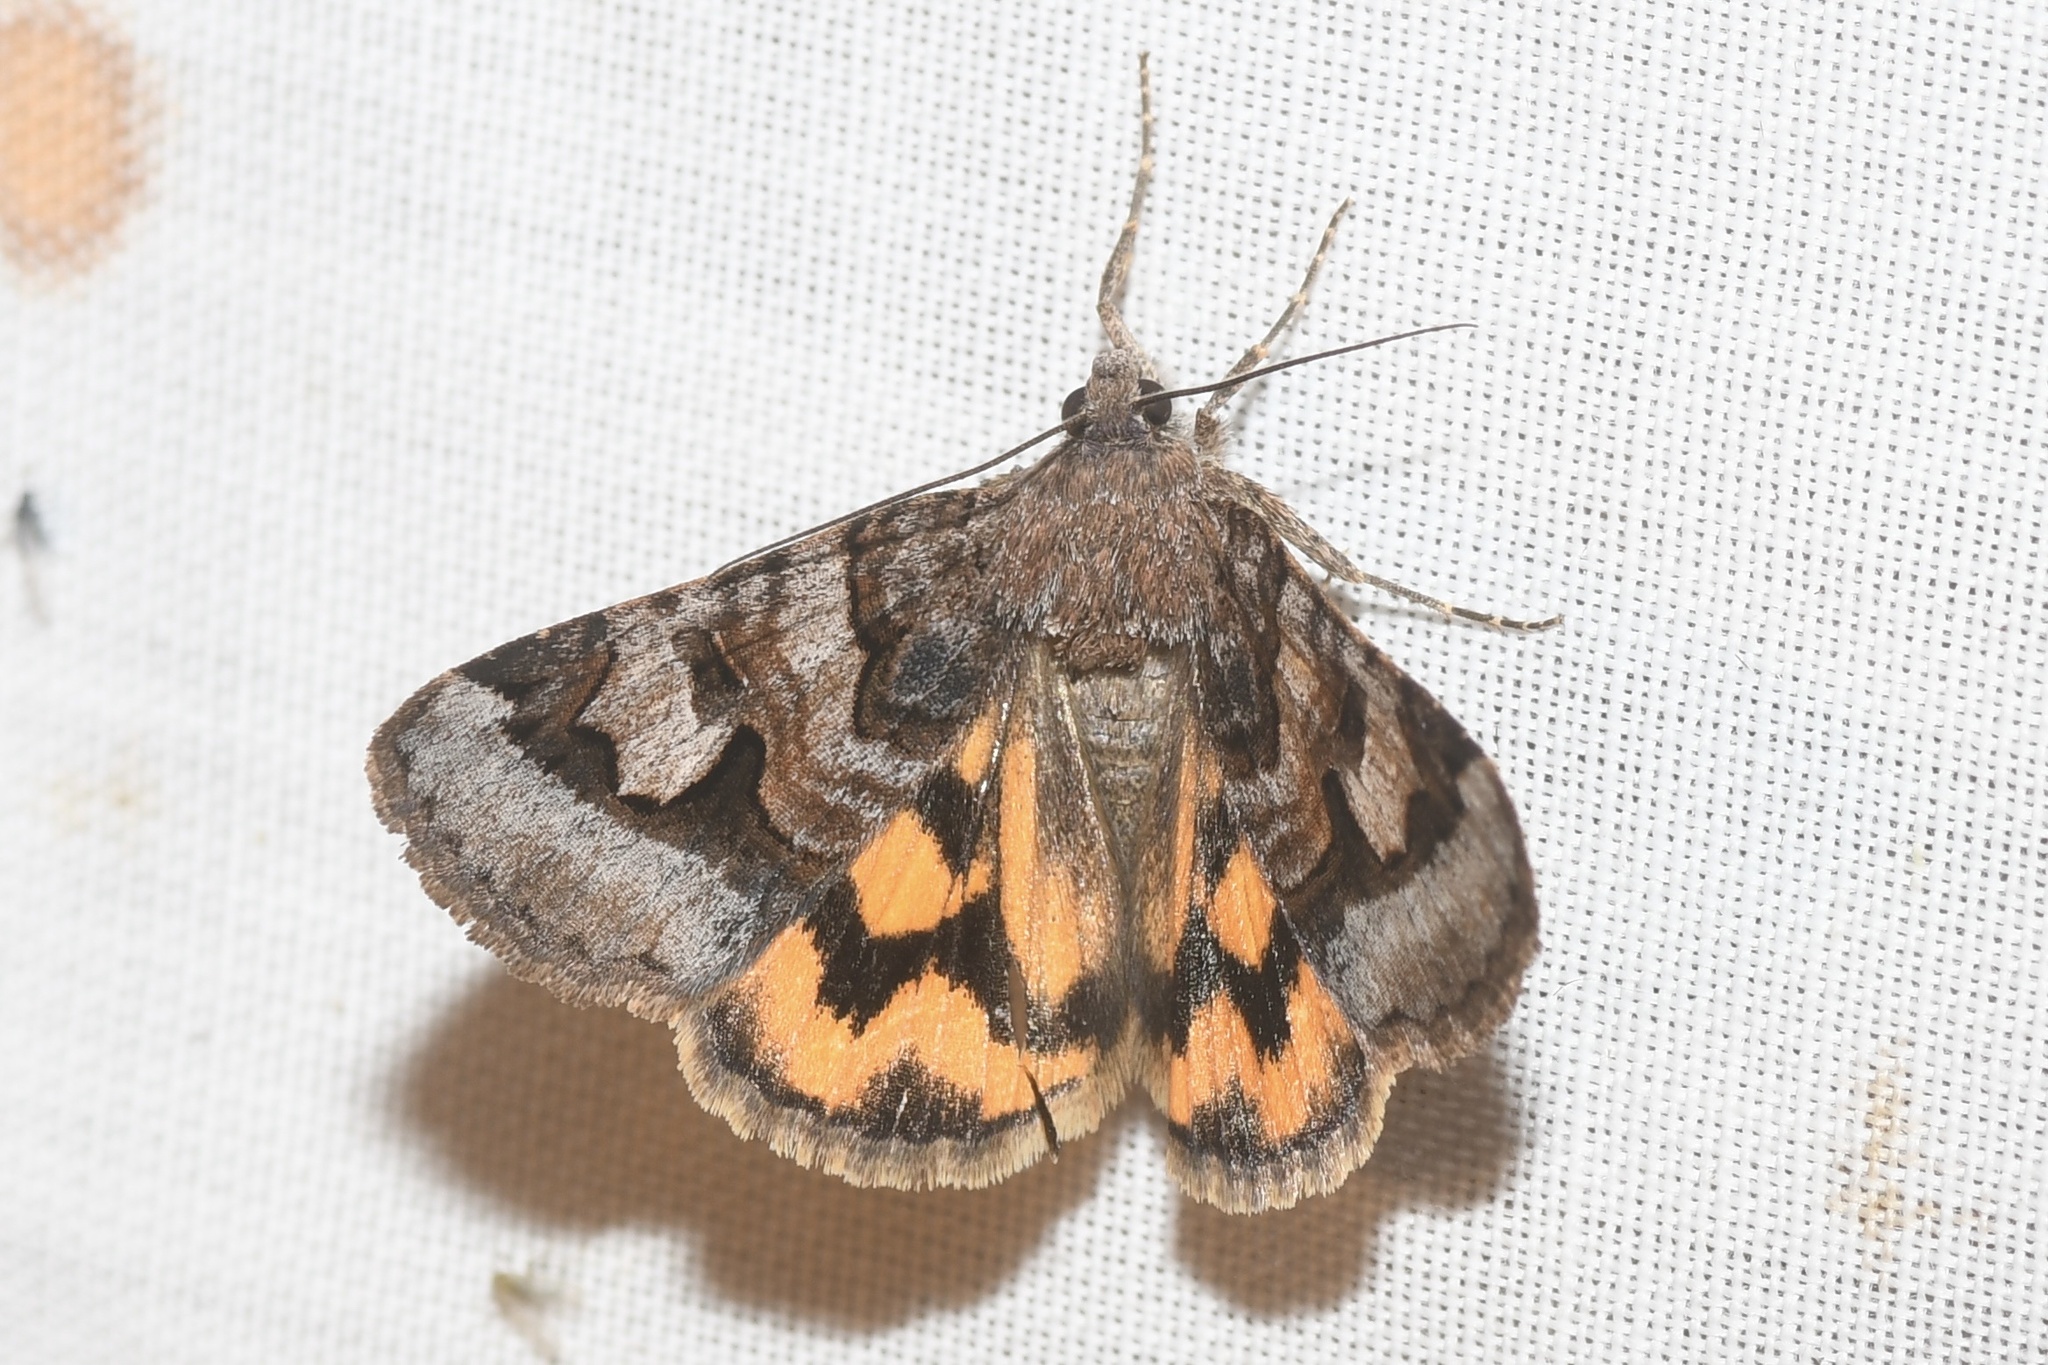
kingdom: Animalia
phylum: Arthropoda
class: Insecta
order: Lepidoptera
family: Erebidae
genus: Drasteria
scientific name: Drasteria adumbrata
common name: Shadowy arches
